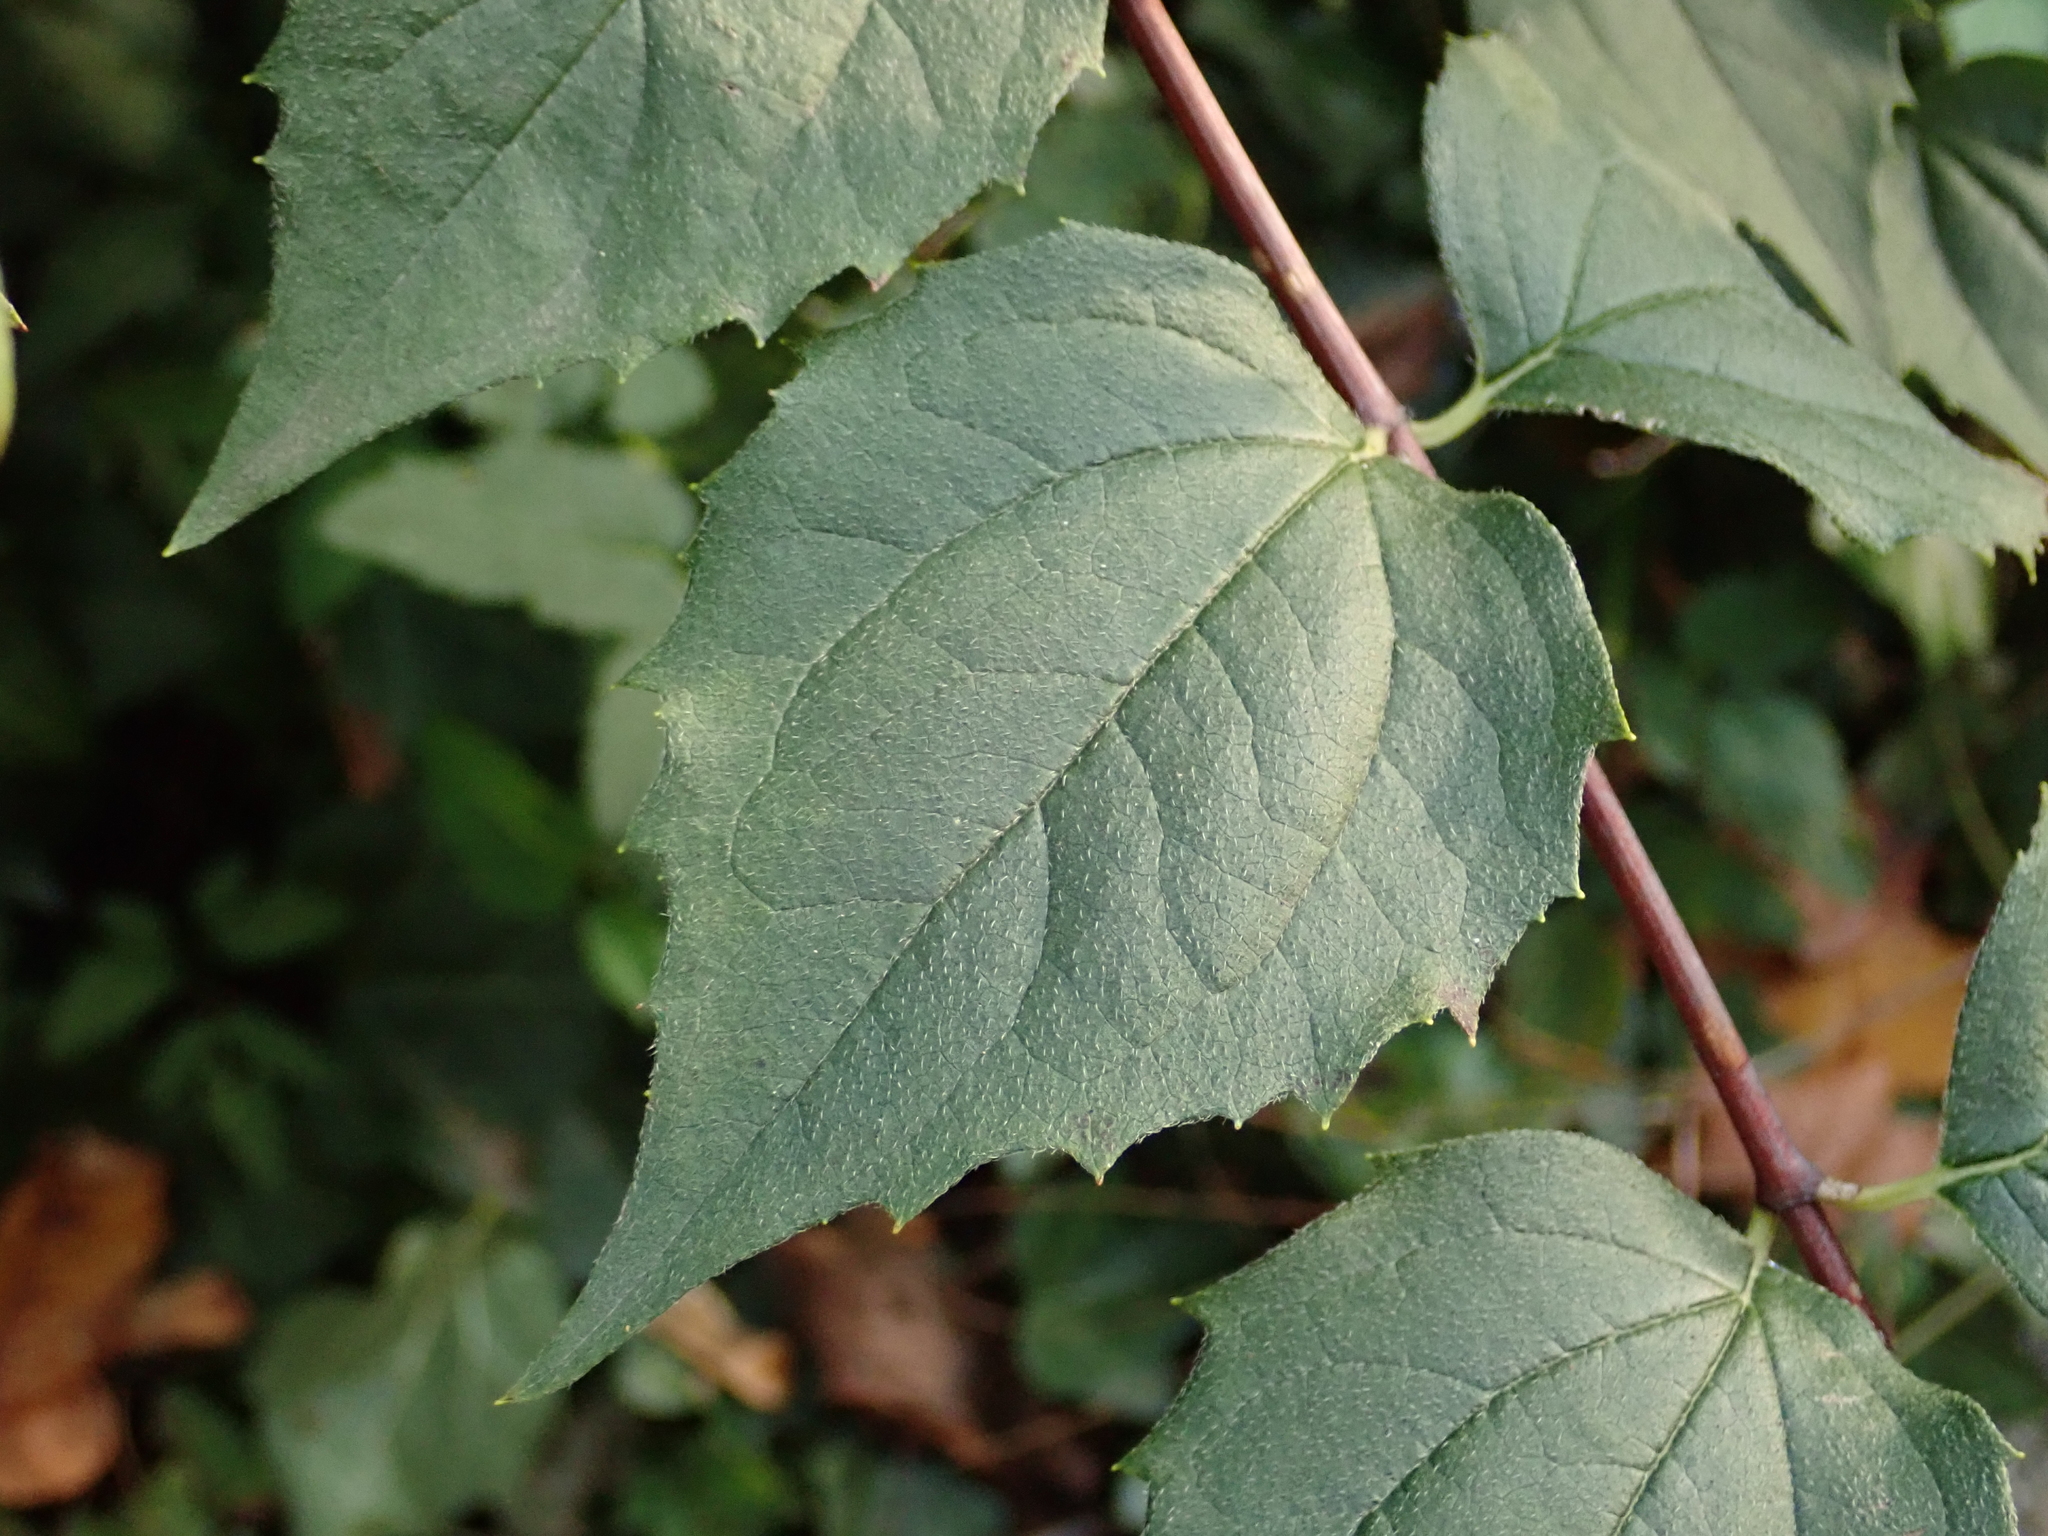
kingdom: Plantae
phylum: Tracheophyta
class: Magnoliopsida
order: Cornales
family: Hydrangeaceae
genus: Philadelphus
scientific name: Philadelphus coronarius
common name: Mock orange
